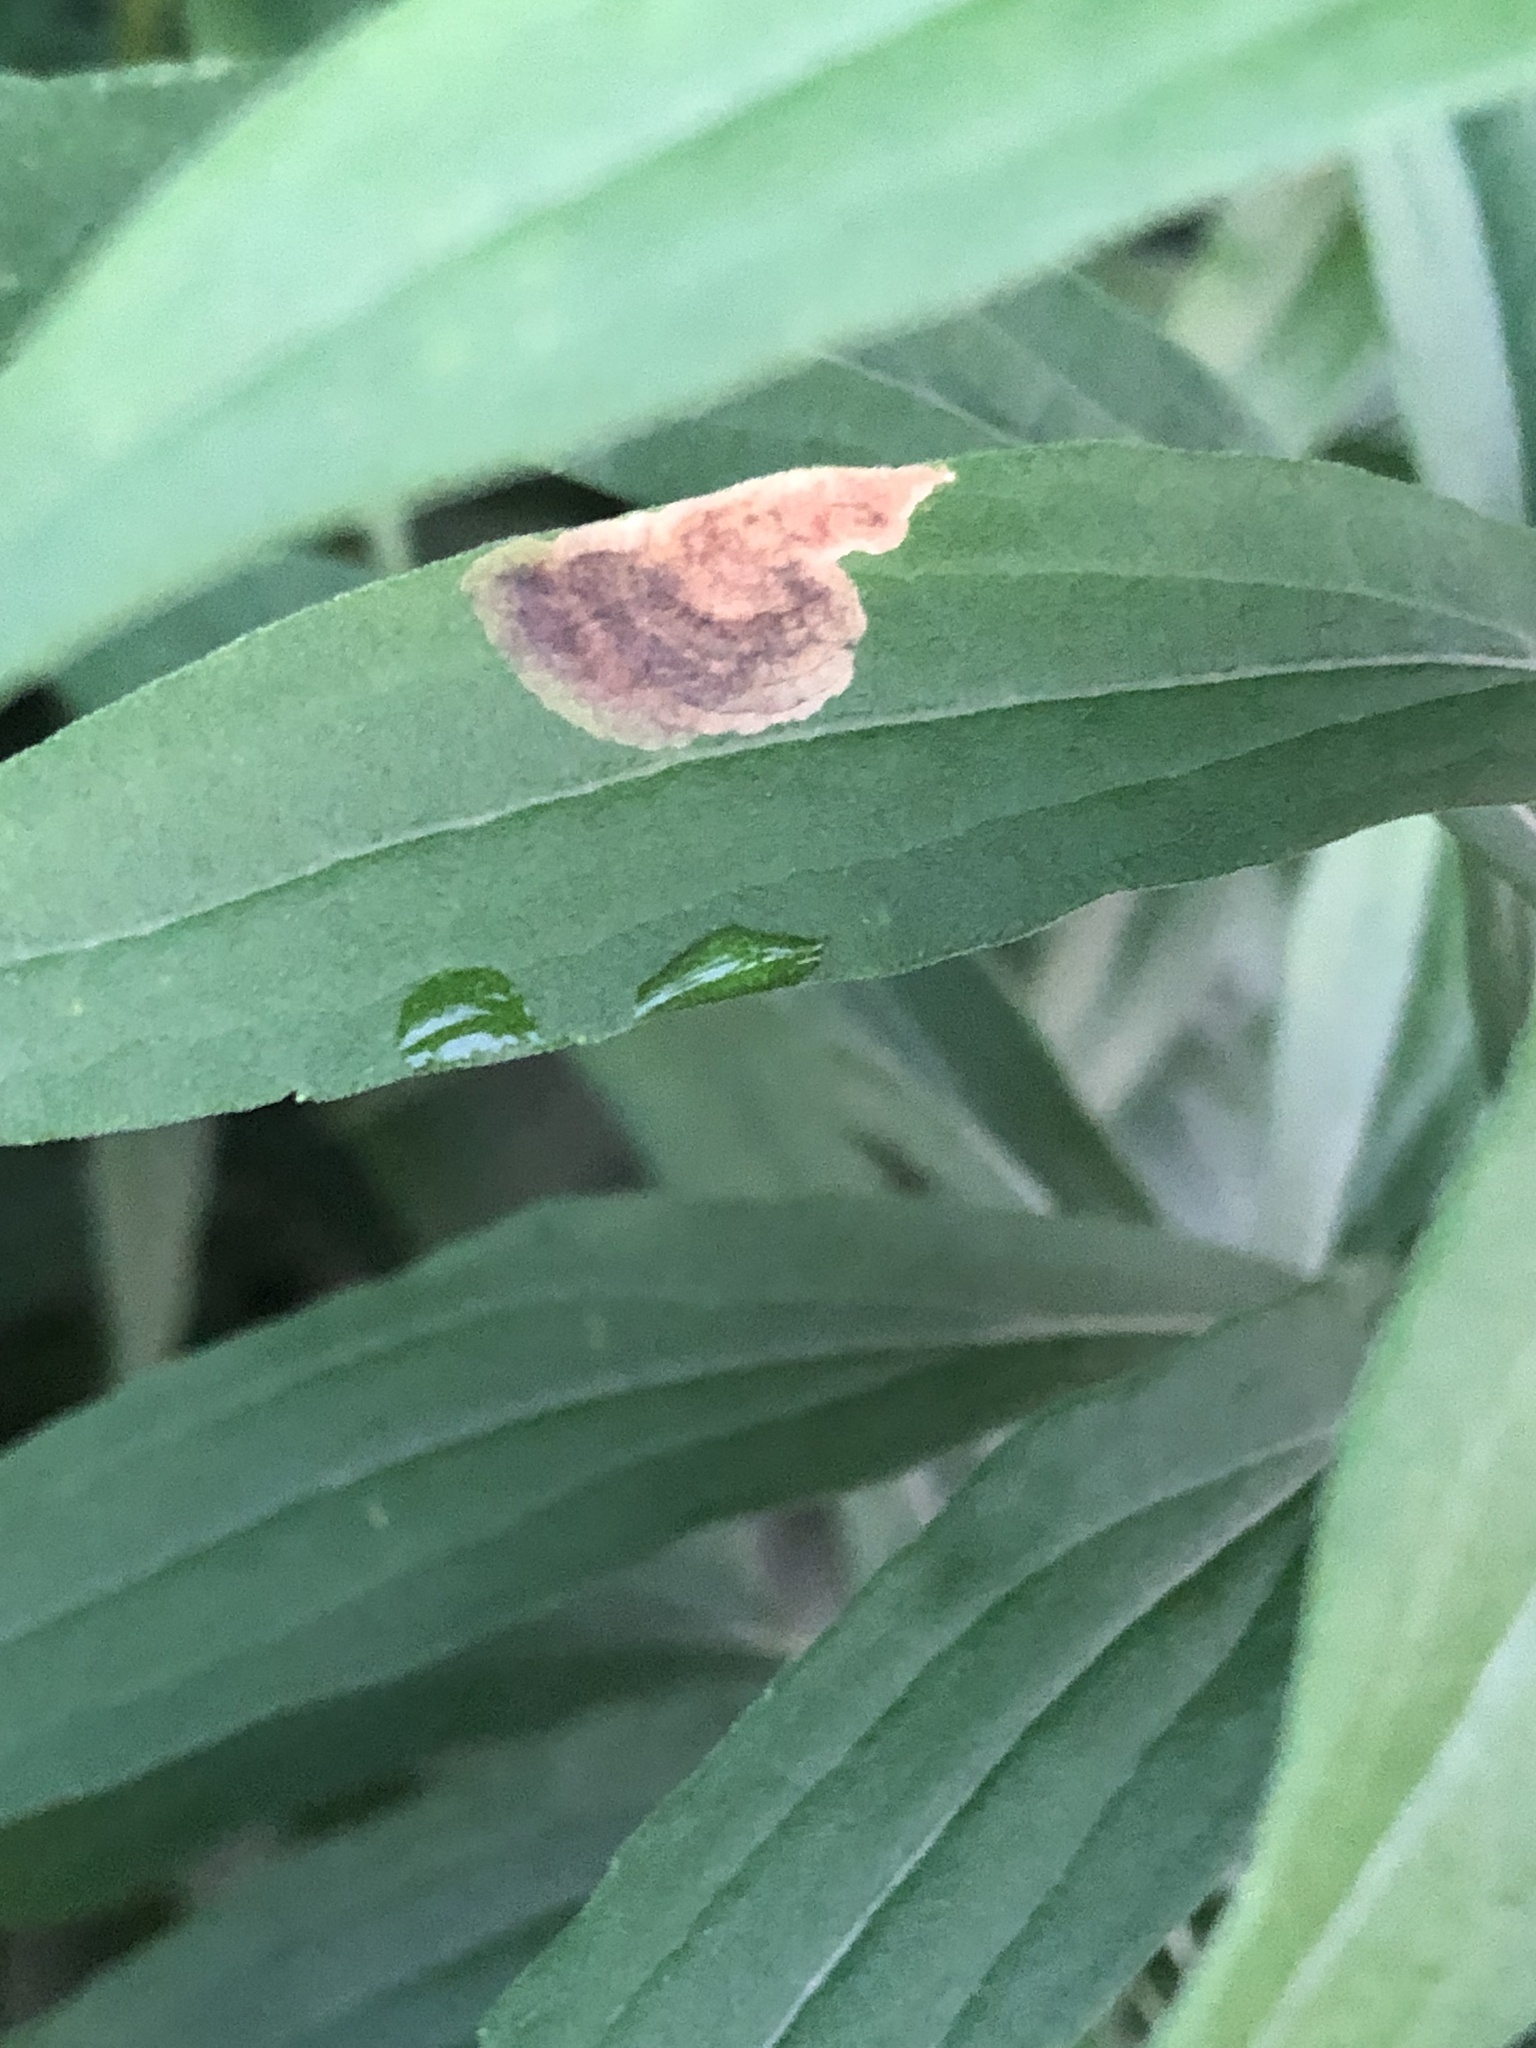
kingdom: Animalia
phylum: Arthropoda
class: Insecta
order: Diptera
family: Agromyzidae
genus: Nemorimyza
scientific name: Nemorimyza posticata
